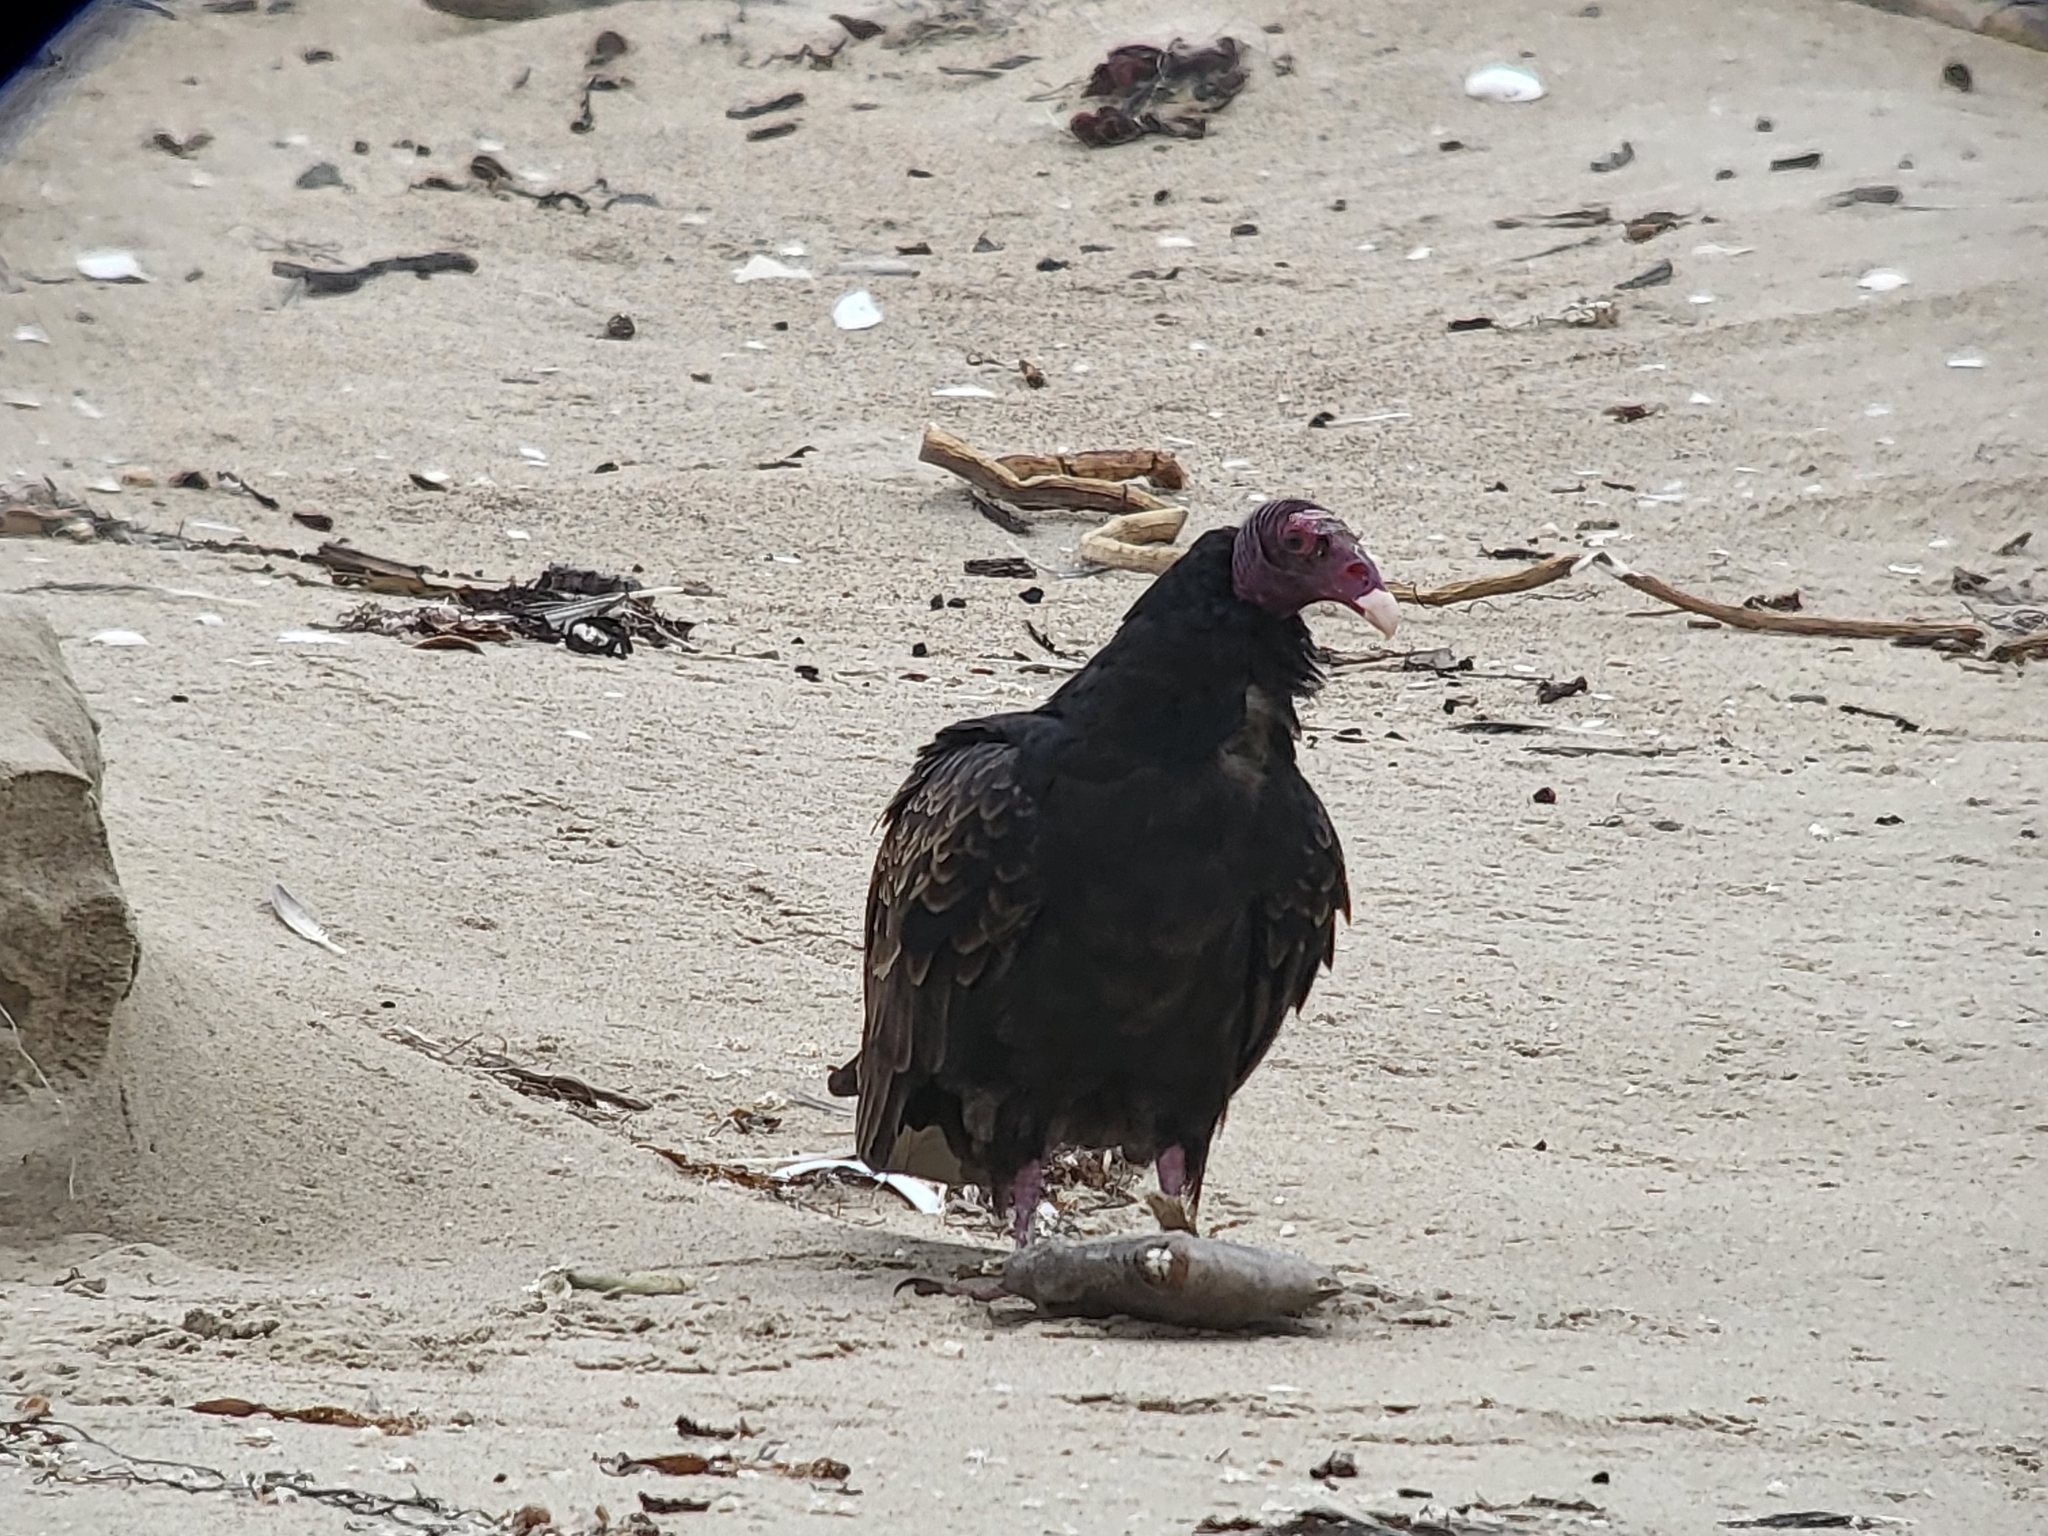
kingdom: Animalia
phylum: Chordata
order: Tetraodontiformes
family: Balistidae
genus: Balistes
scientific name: Balistes polylepis
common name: Finescale triggerfish
